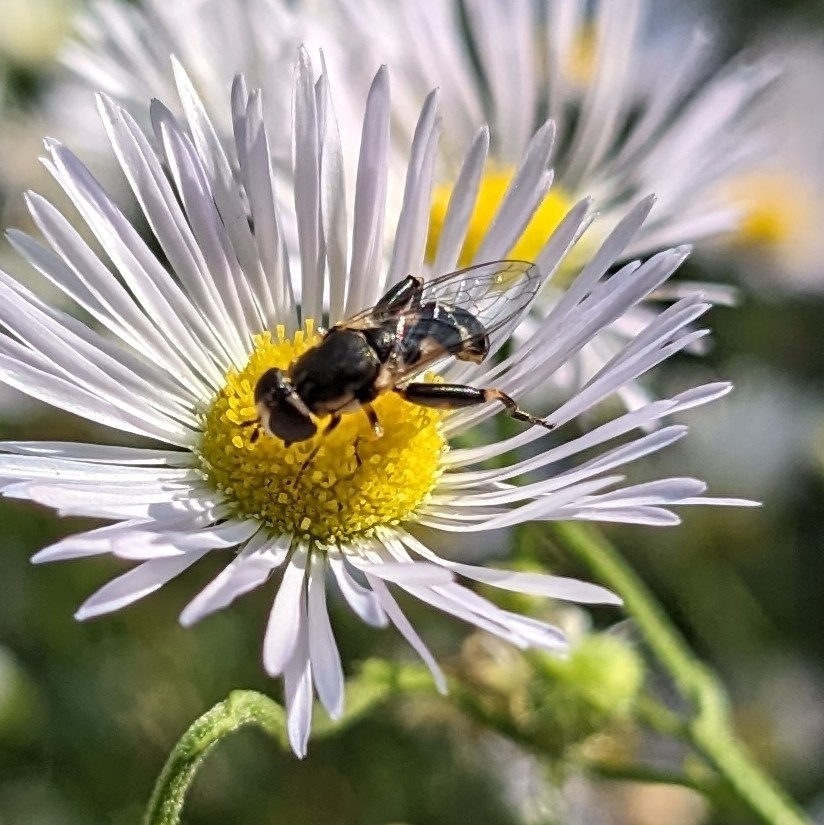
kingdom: Animalia
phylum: Arthropoda
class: Insecta
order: Diptera
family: Syrphidae
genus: Syritta
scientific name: Syritta pipiens
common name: Hover fly
